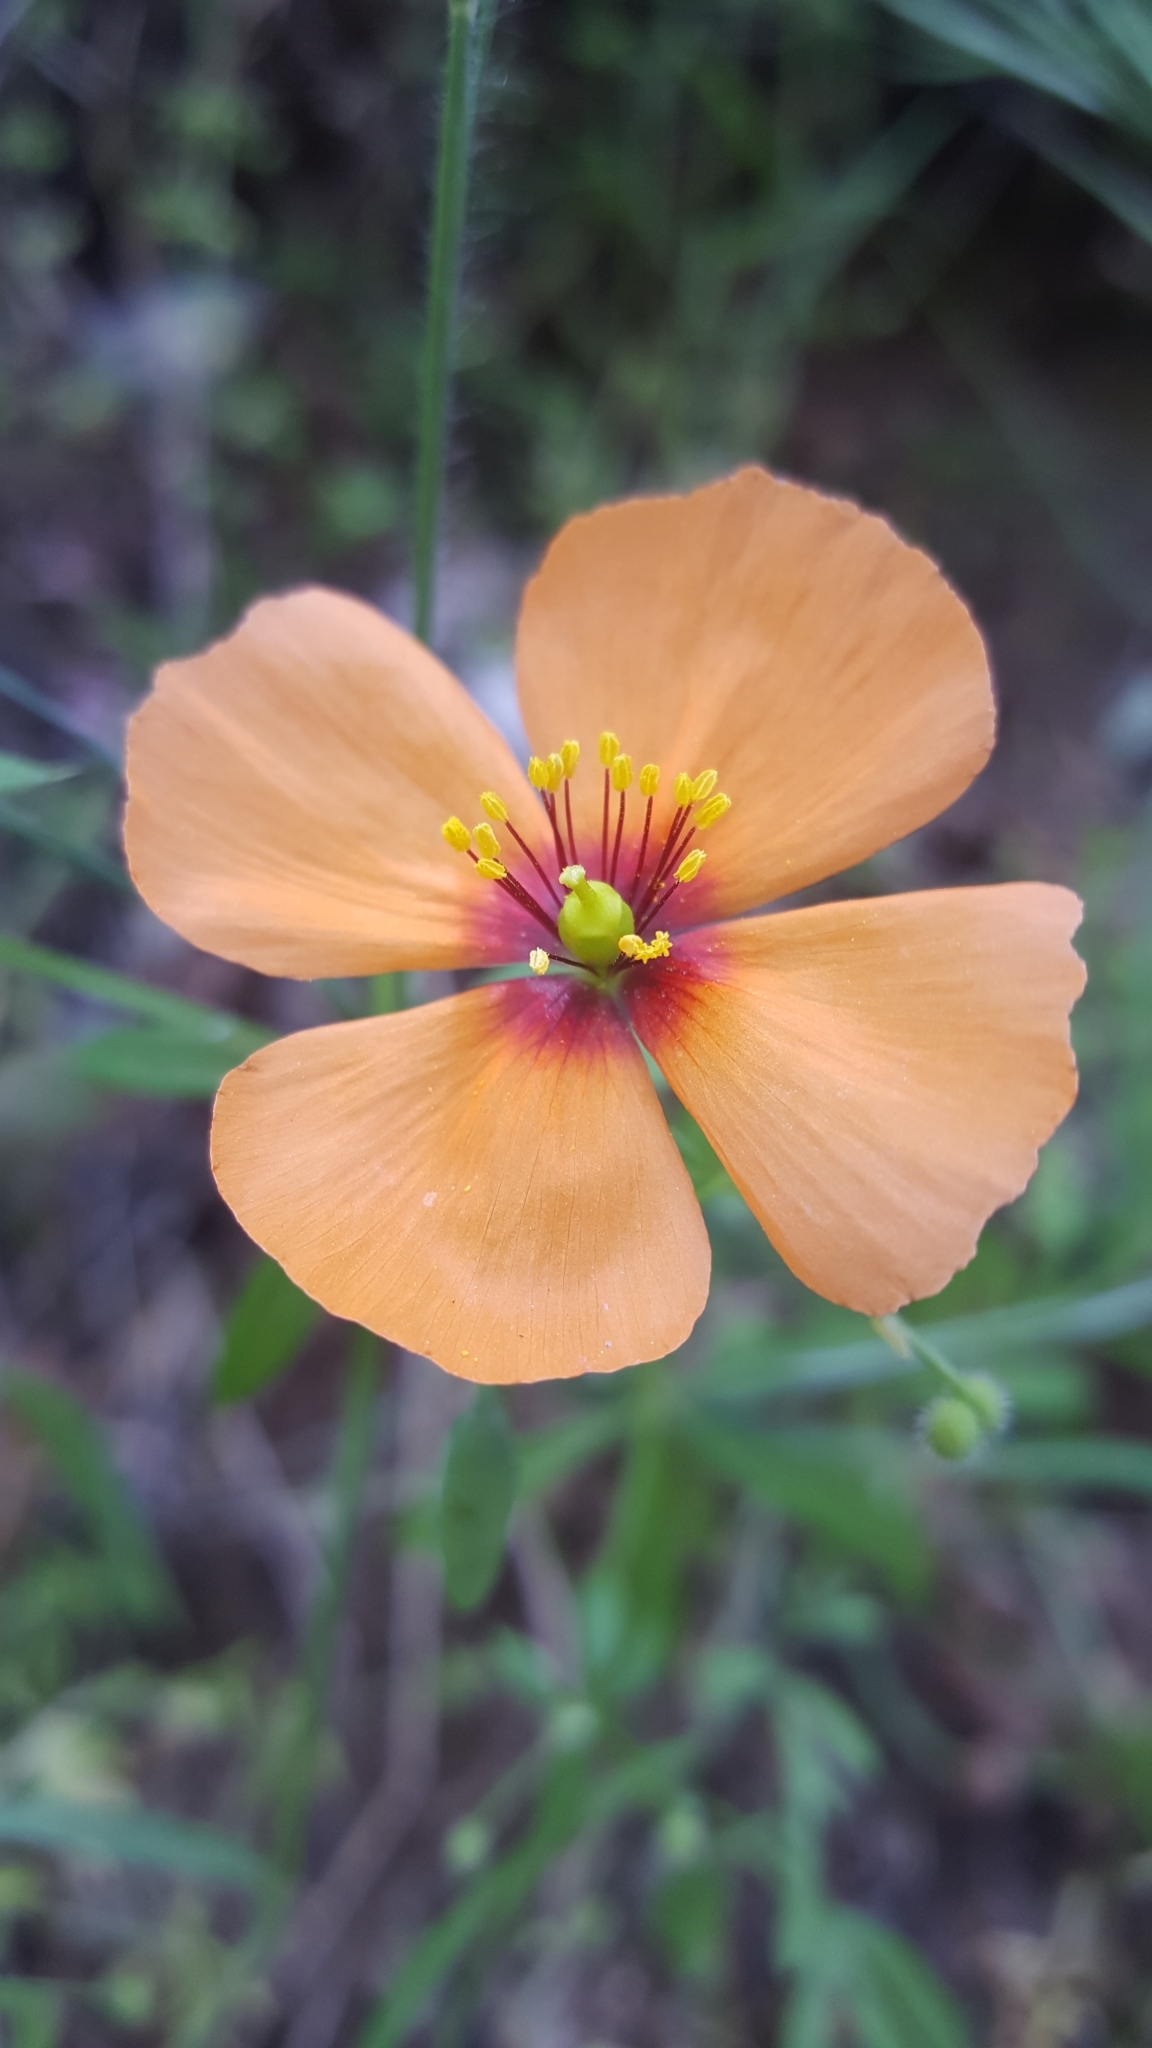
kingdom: Plantae
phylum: Tracheophyta
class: Magnoliopsida
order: Ranunculales
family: Papaveraceae
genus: Stylomecon
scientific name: Stylomecon heterophylla
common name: Flaming-poppy
